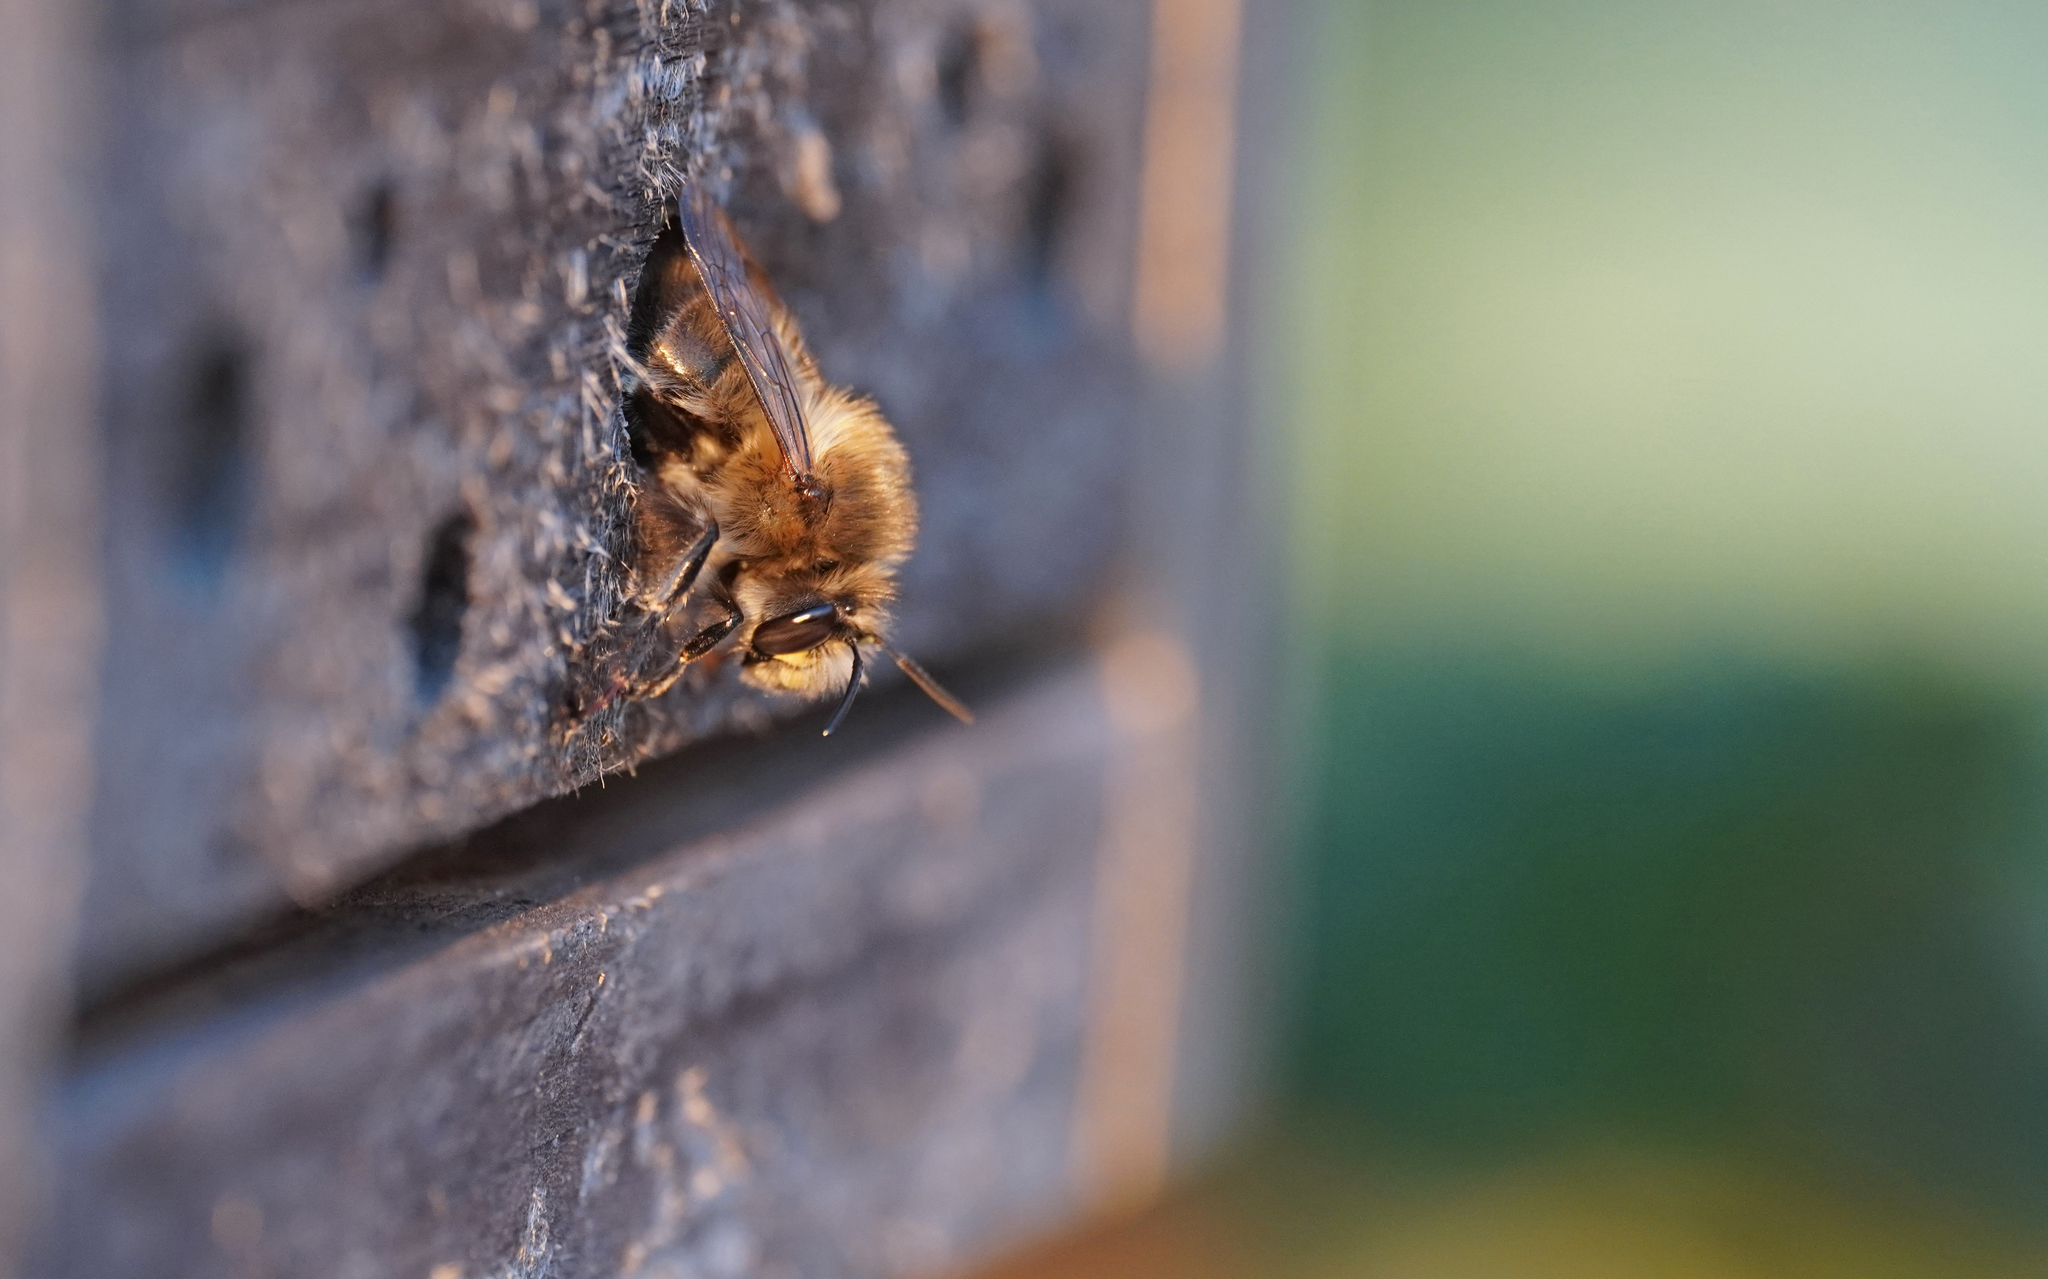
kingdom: Animalia
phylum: Arthropoda
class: Insecta
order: Hymenoptera
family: Apidae
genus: Anthophora
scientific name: Anthophora plumipes
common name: Hairy-footed flower bee
